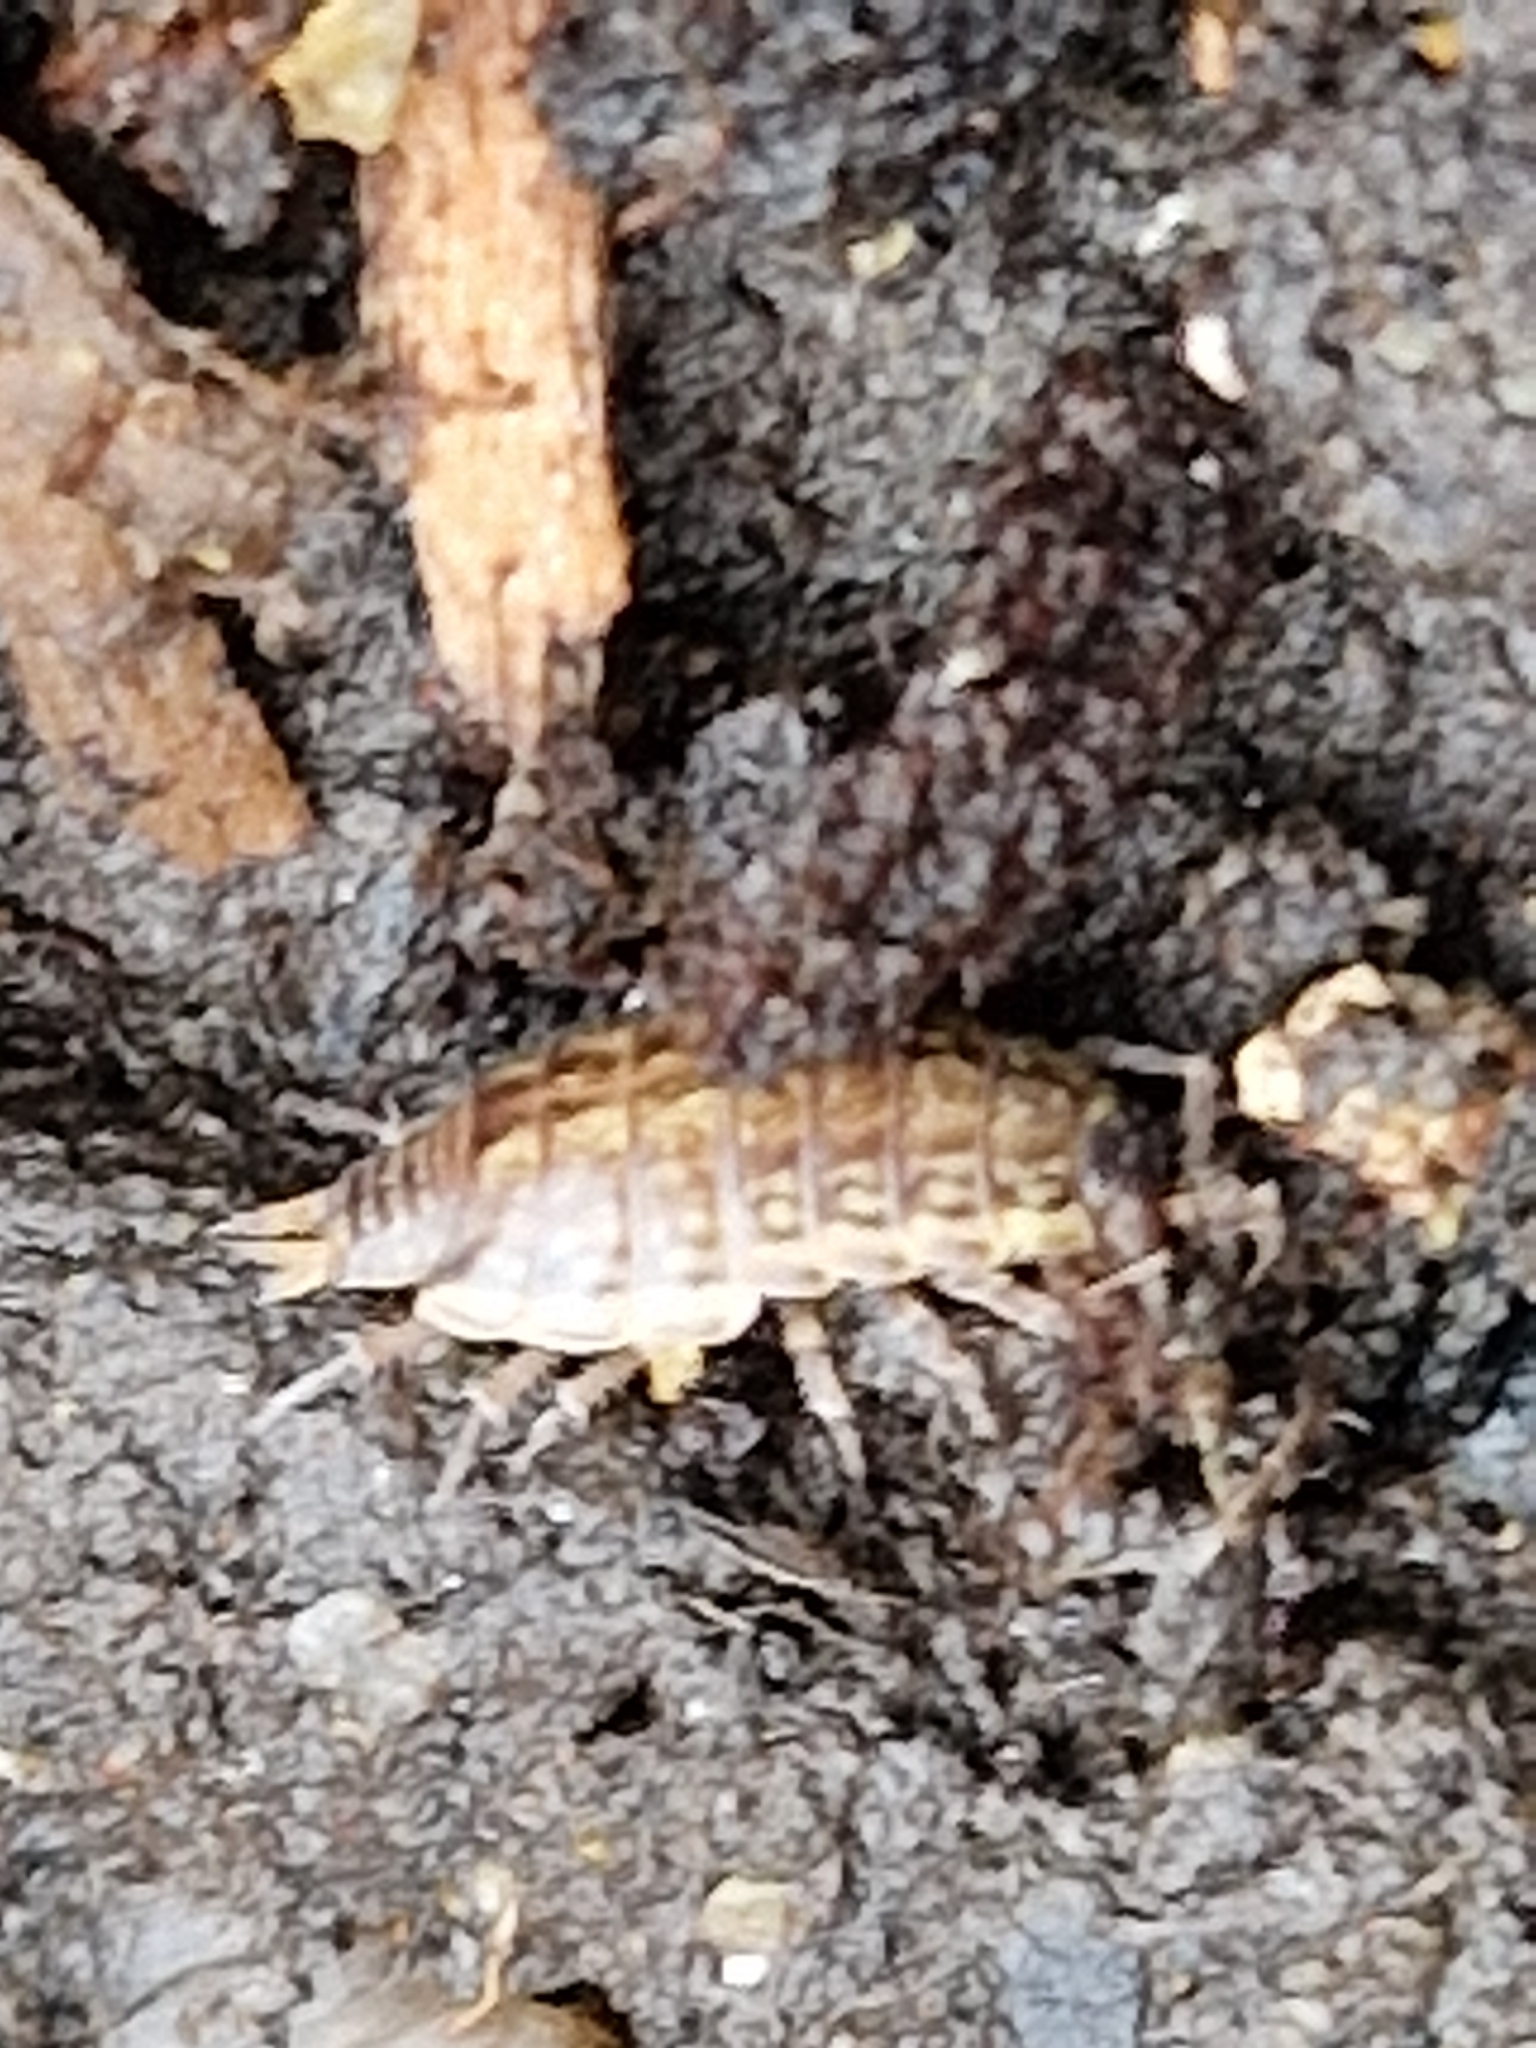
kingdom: Animalia
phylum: Arthropoda
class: Malacostraca
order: Isopoda
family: Philosciidae
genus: Philoscia
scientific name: Philoscia muscorum
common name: Common striped woodlouse
